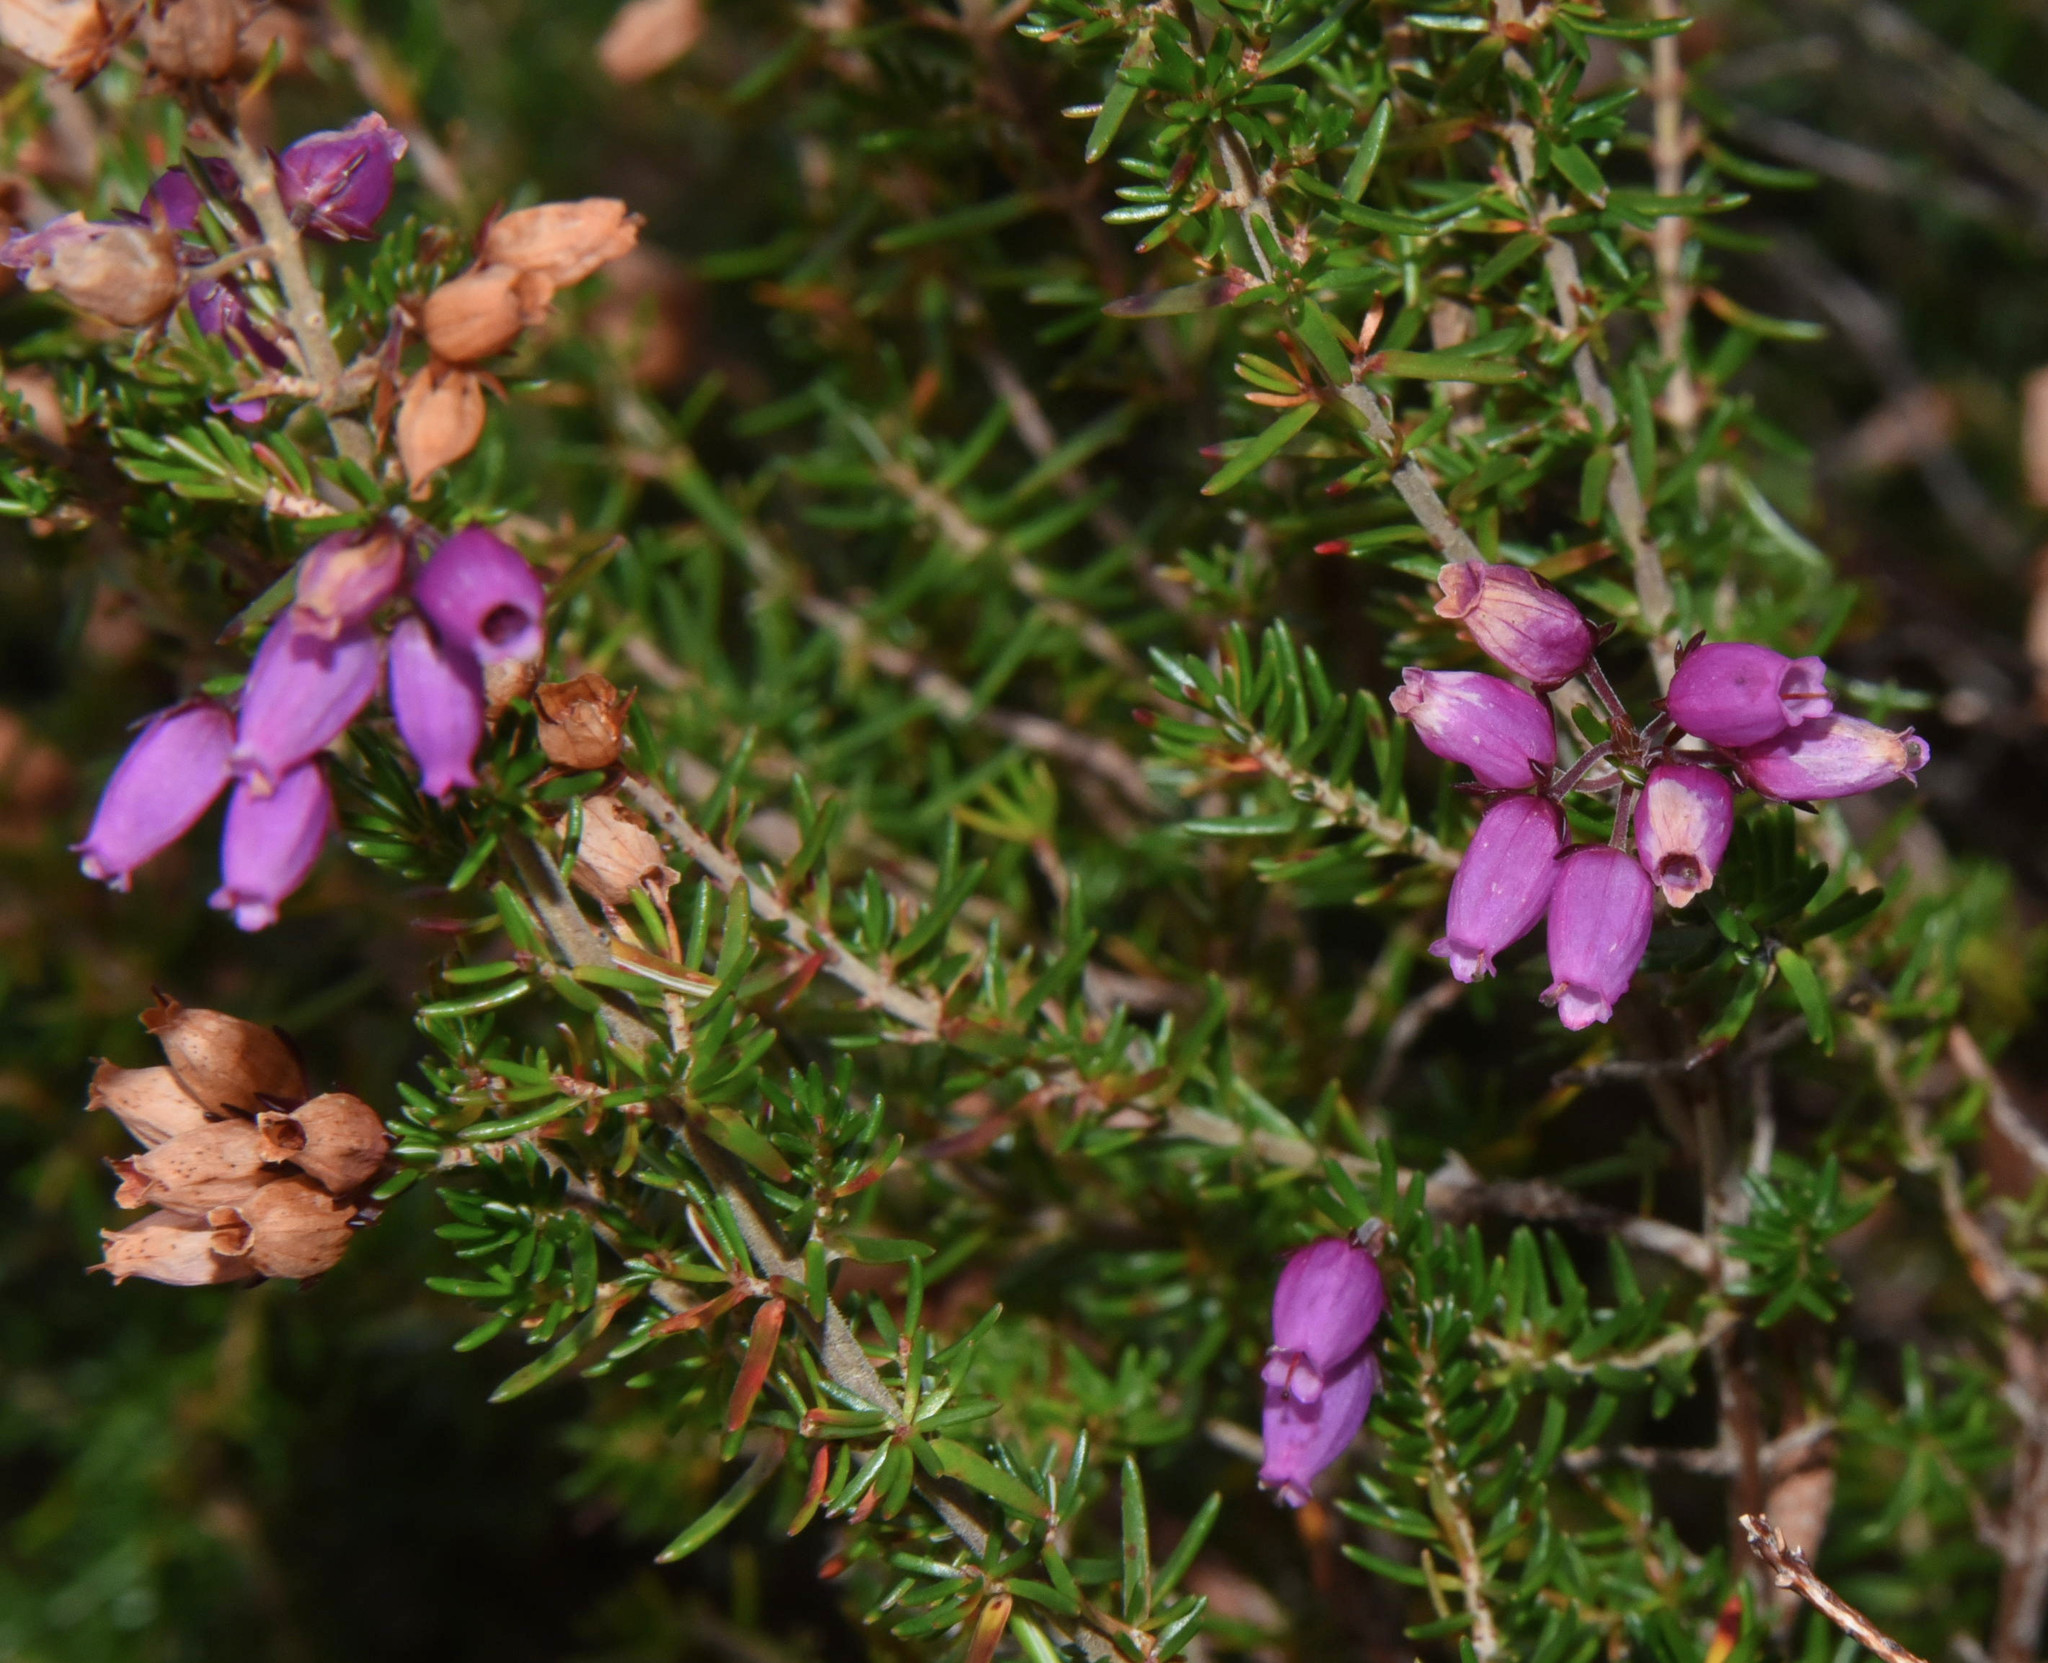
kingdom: Plantae
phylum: Tracheophyta
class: Magnoliopsida
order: Ericales
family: Ericaceae
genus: Erica
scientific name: Erica cinerea
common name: Bell heather
